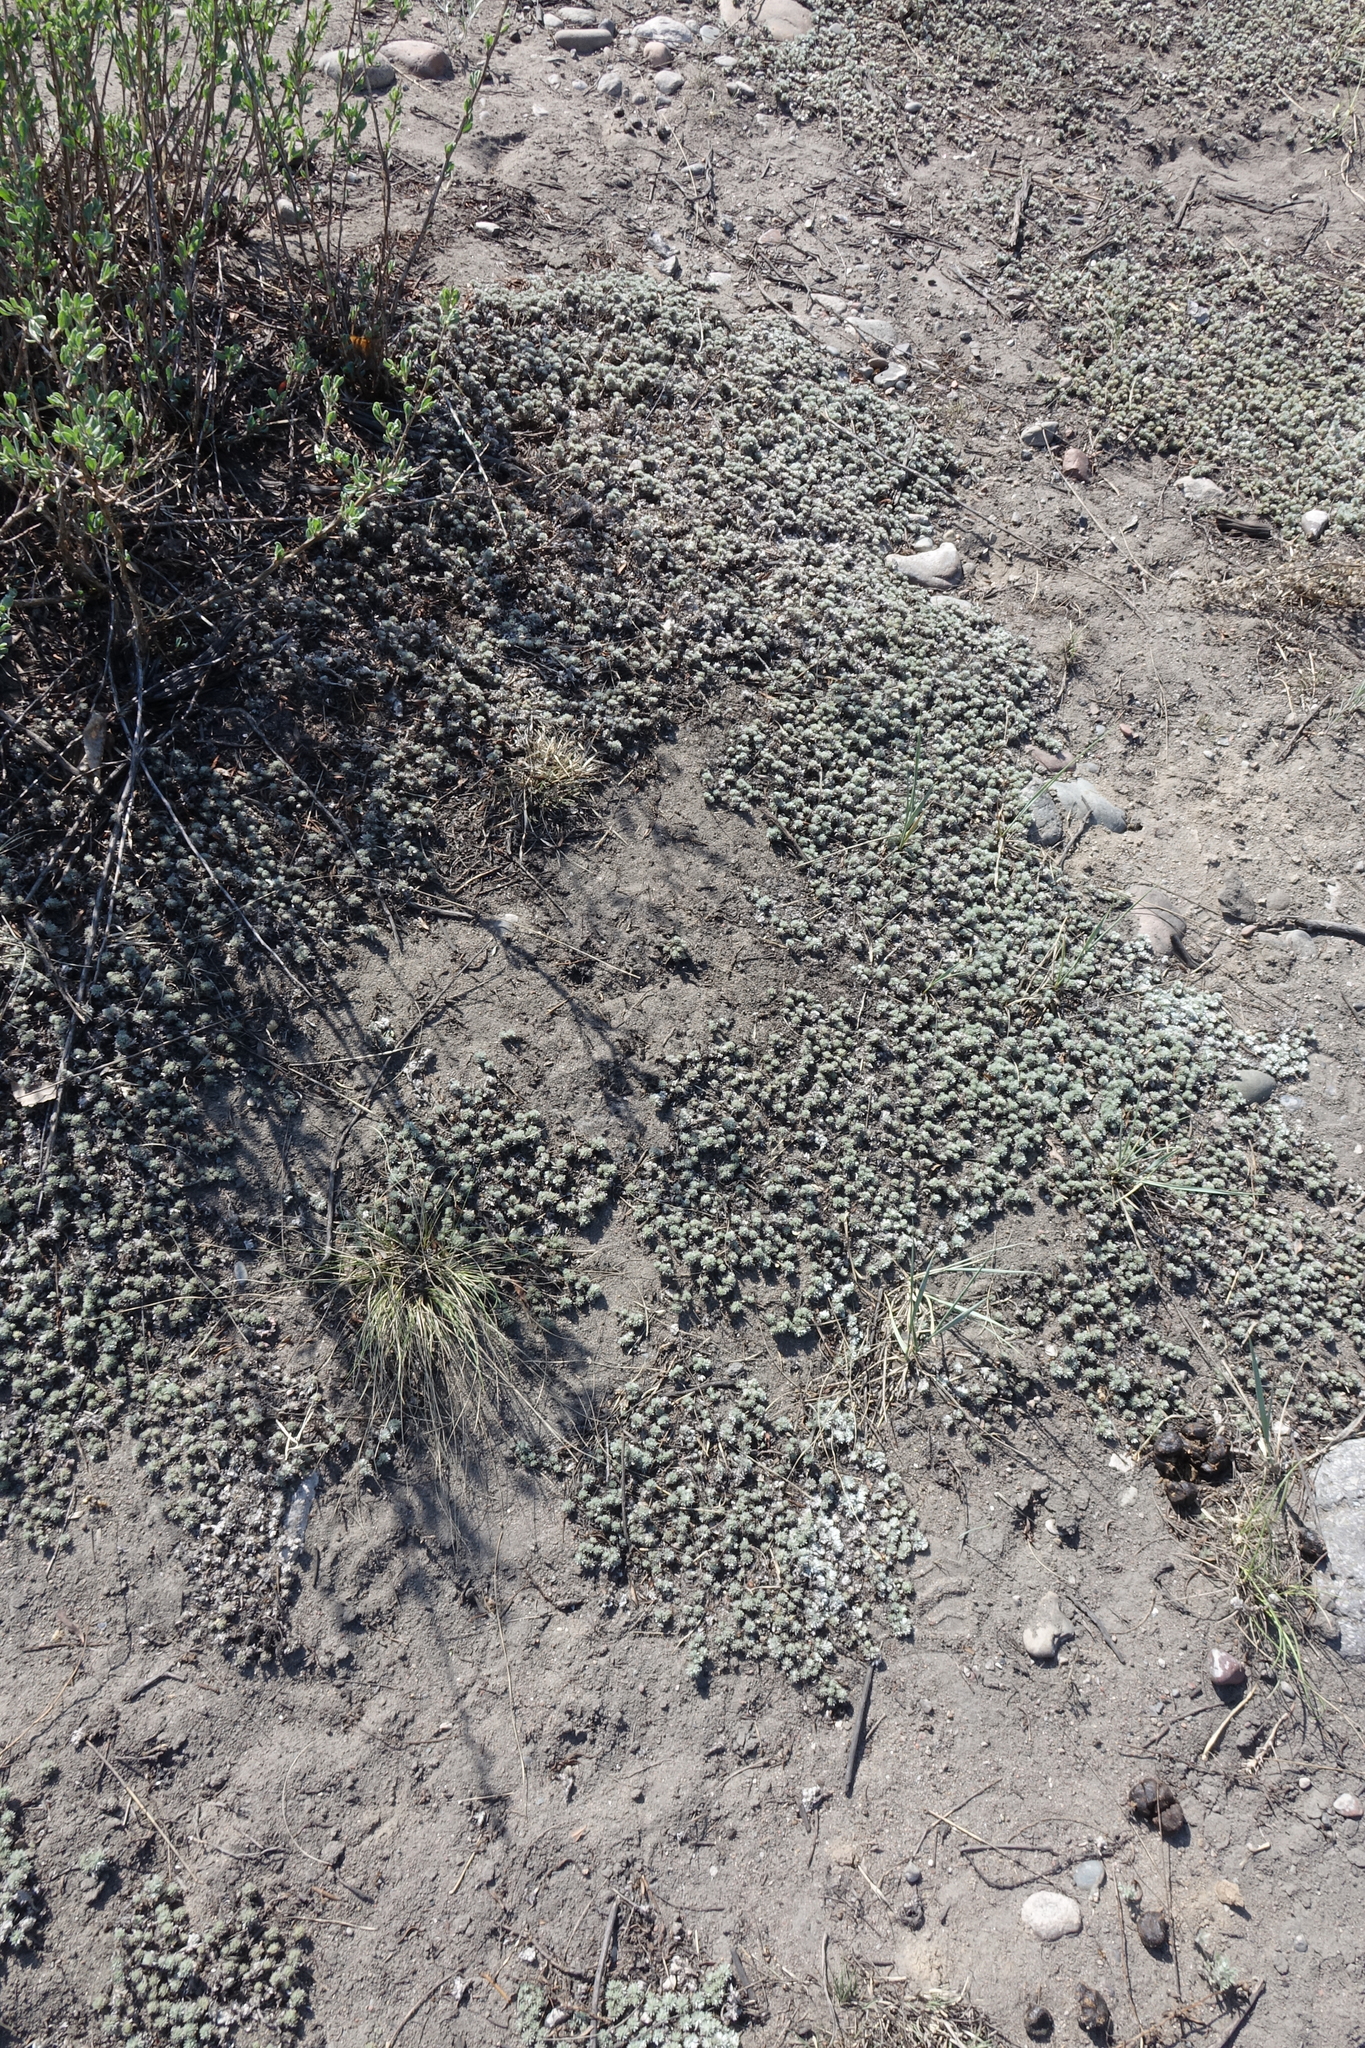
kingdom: Plantae
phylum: Tracheophyta
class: Magnoliopsida
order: Asterales
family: Asteraceae
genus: Artemisia
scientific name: Artemisia frigida
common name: Prairie sagewort
